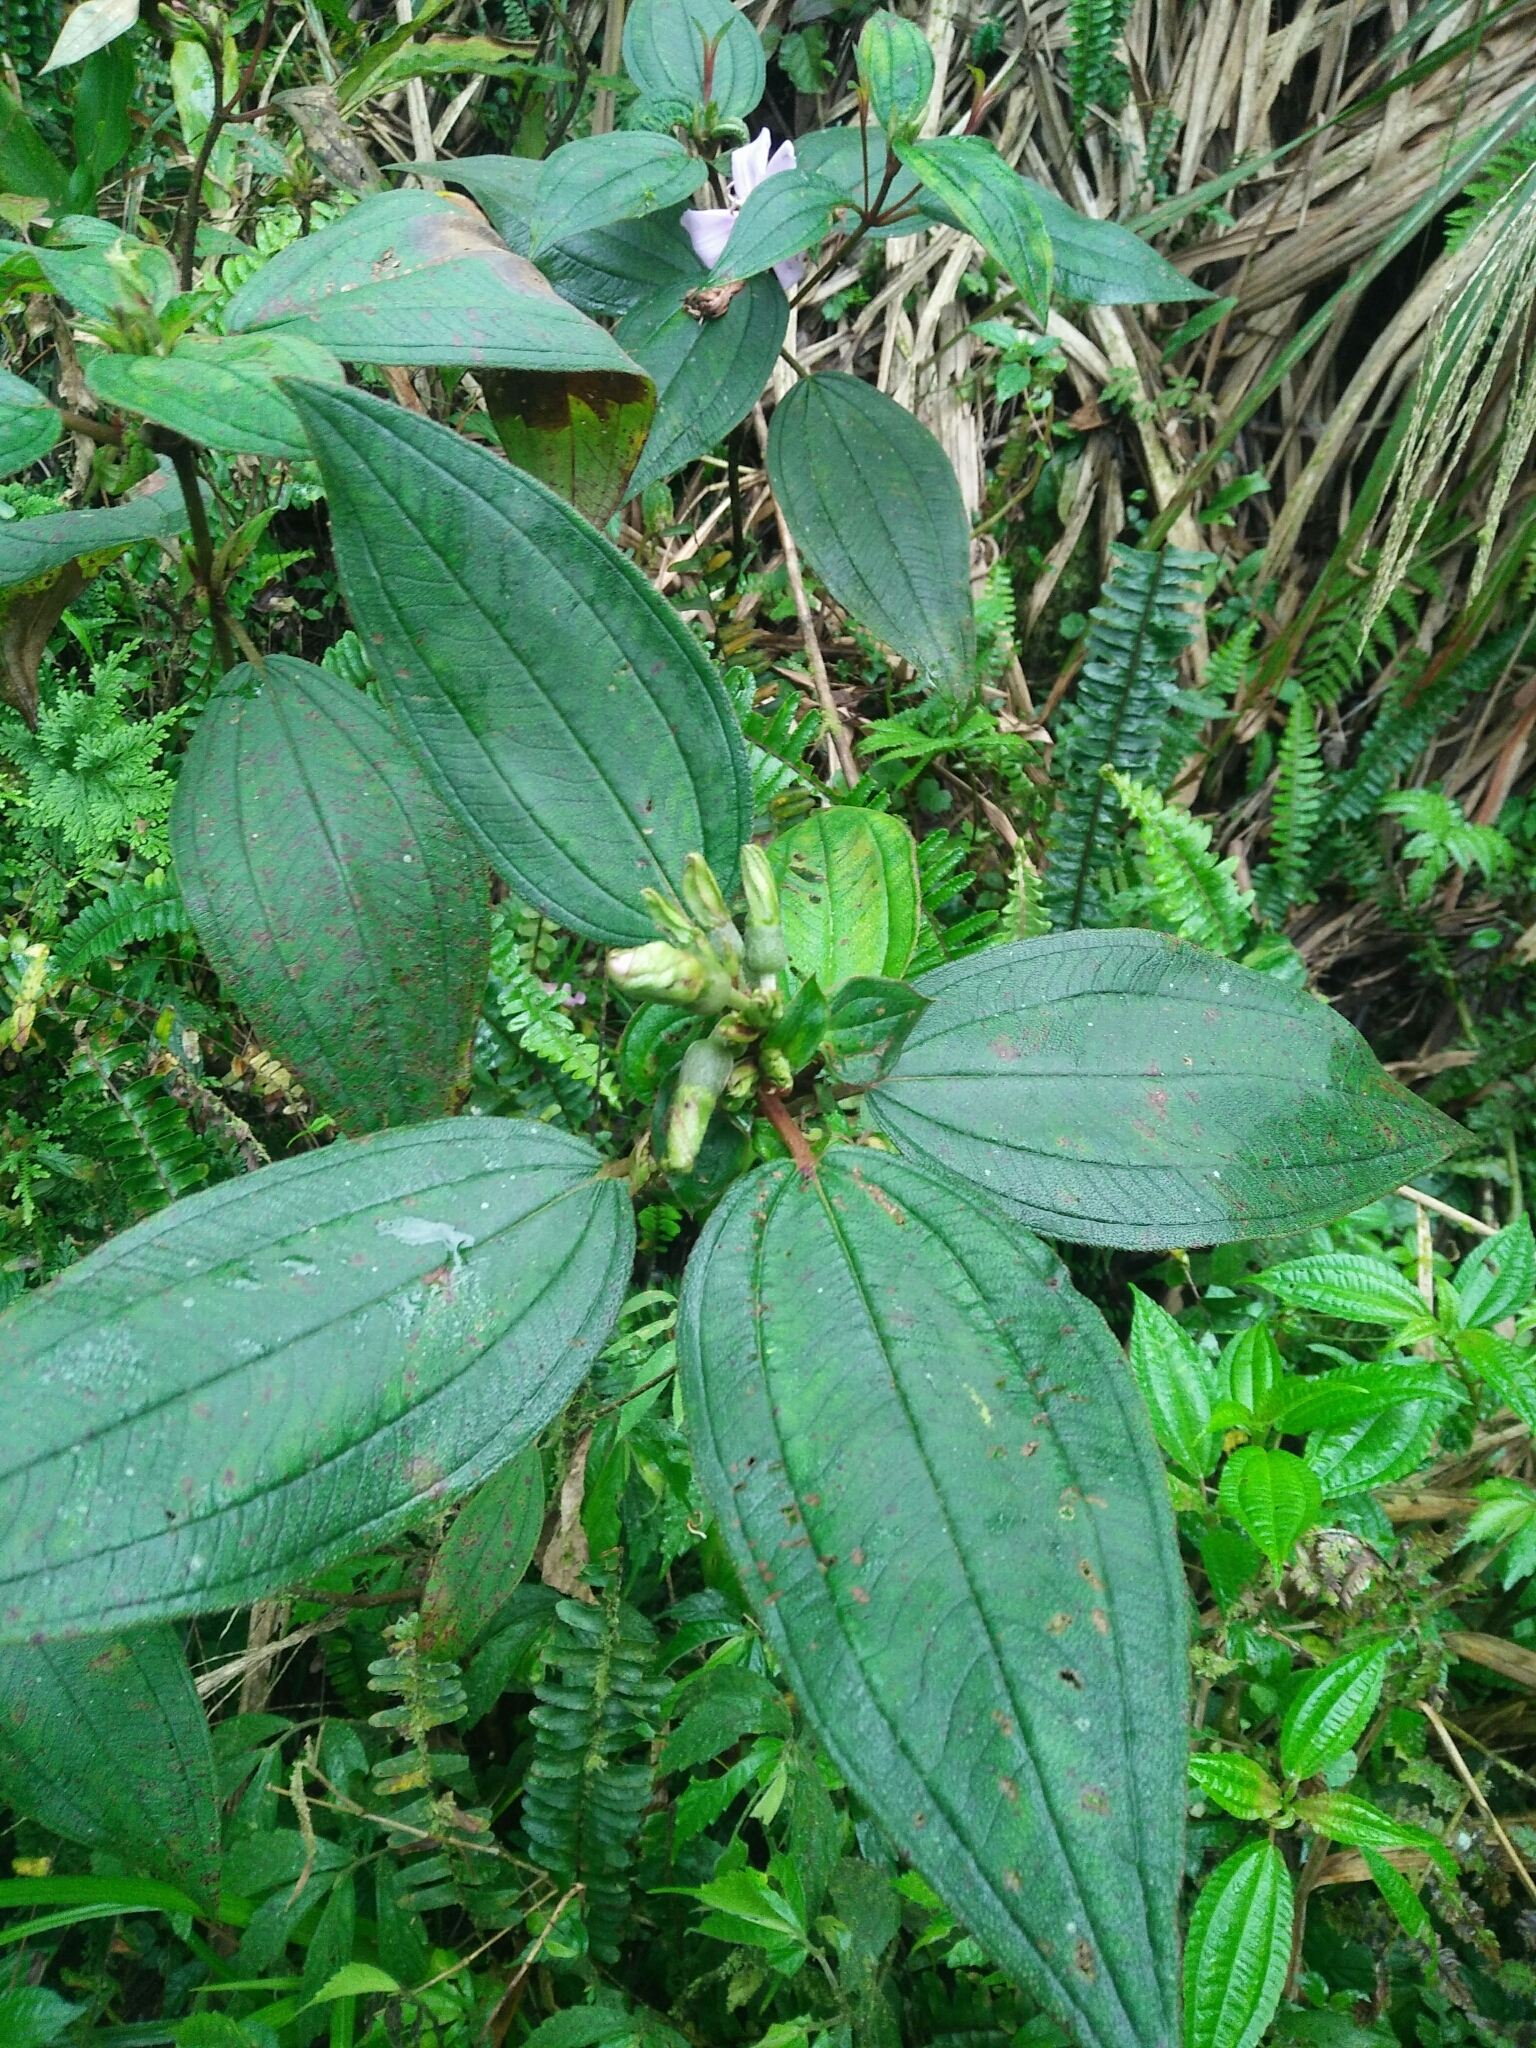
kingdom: Plantae
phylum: Tracheophyta
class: Magnoliopsida
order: Myrtales
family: Melastomataceae
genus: Melastoma
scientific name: Melastoma malabathricum
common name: Indian-rhododendron
